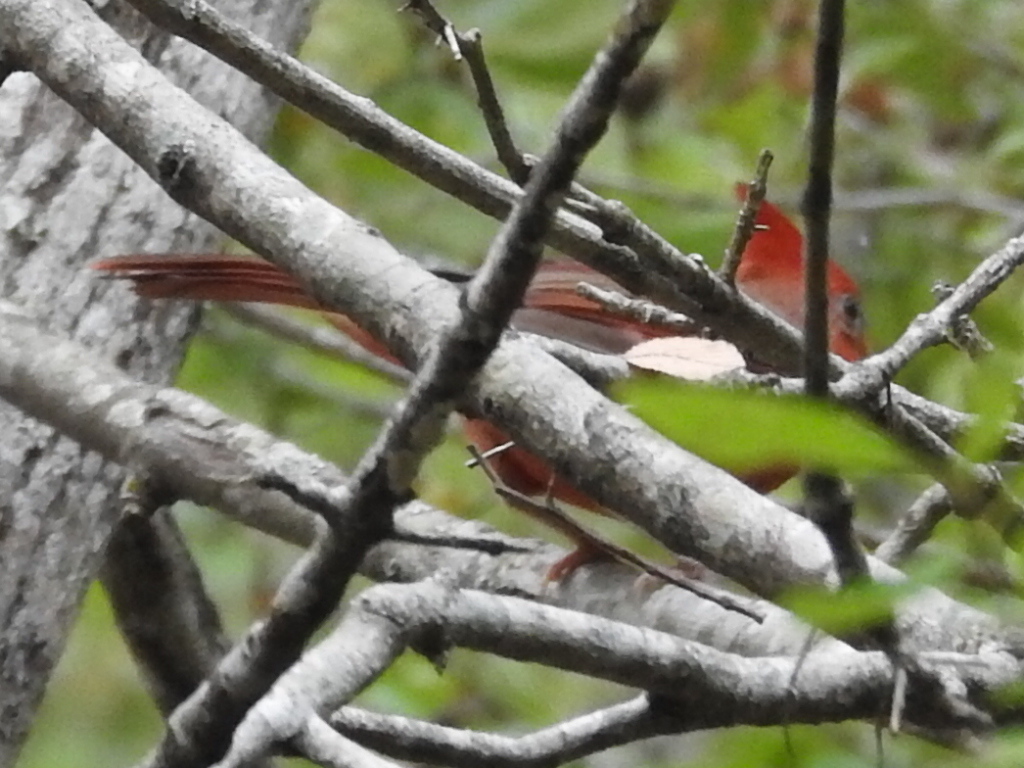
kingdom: Animalia
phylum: Chordata
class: Aves
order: Passeriformes
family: Cardinalidae
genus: Cardinalis
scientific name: Cardinalis cardinalis
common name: Northern cardinal
